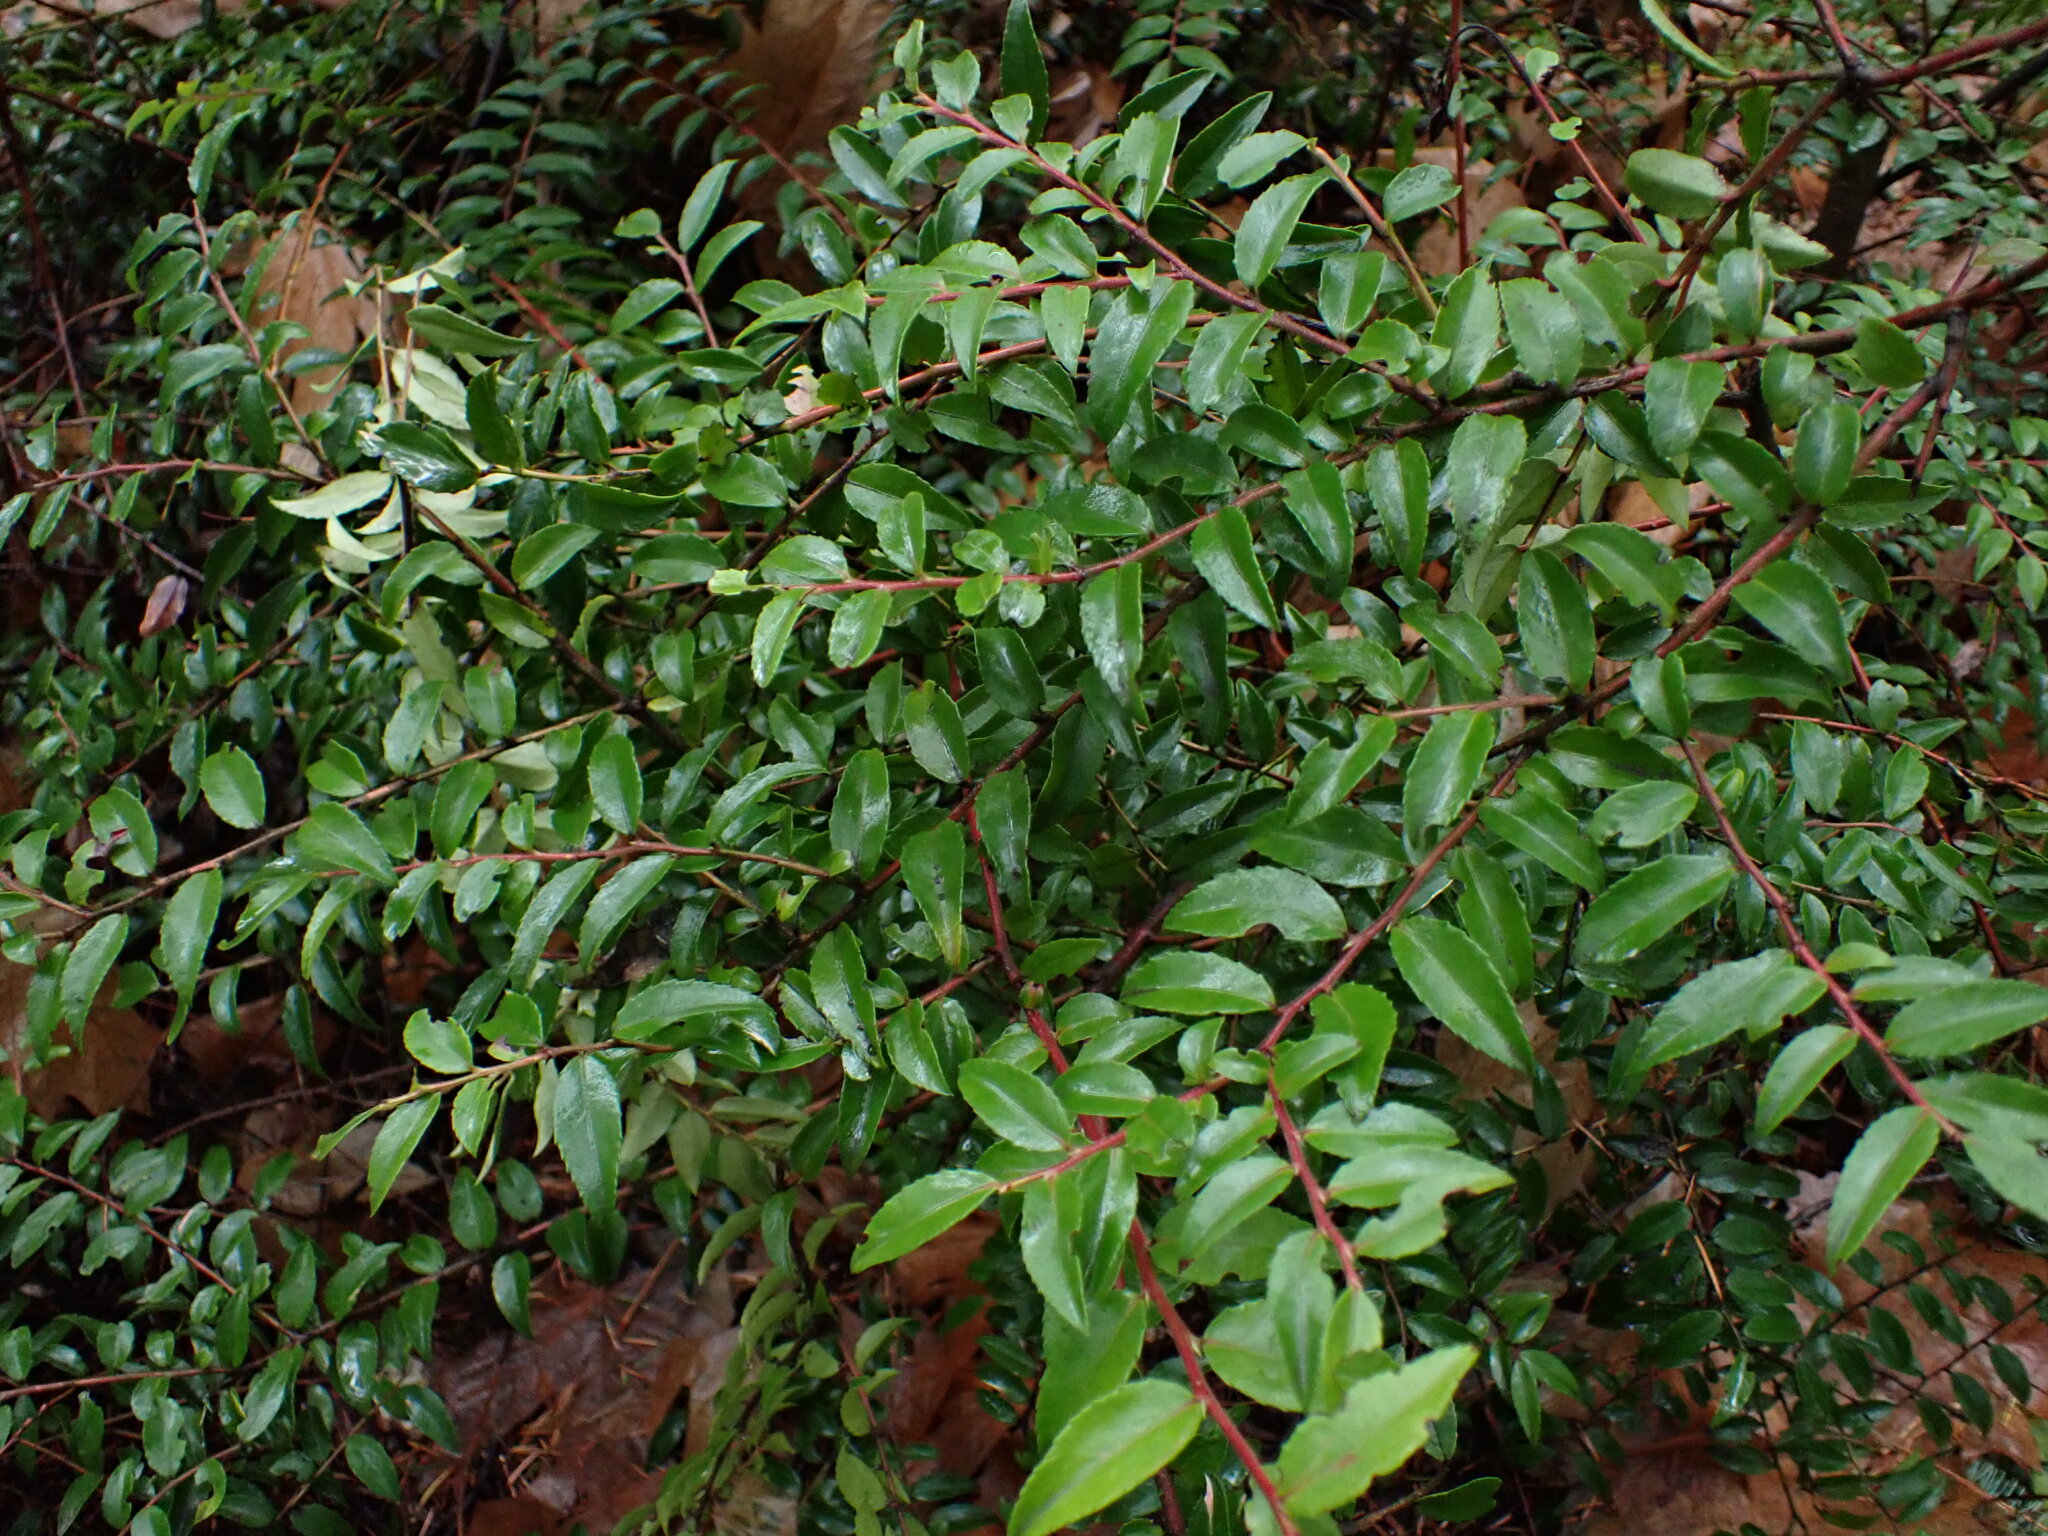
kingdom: Plantae
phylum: Tracheophyta
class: Magnoliopsida
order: Ericales
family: Ericaceae
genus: Vaccinium
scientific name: Vaccinium ovatum
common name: California-huckleberry
